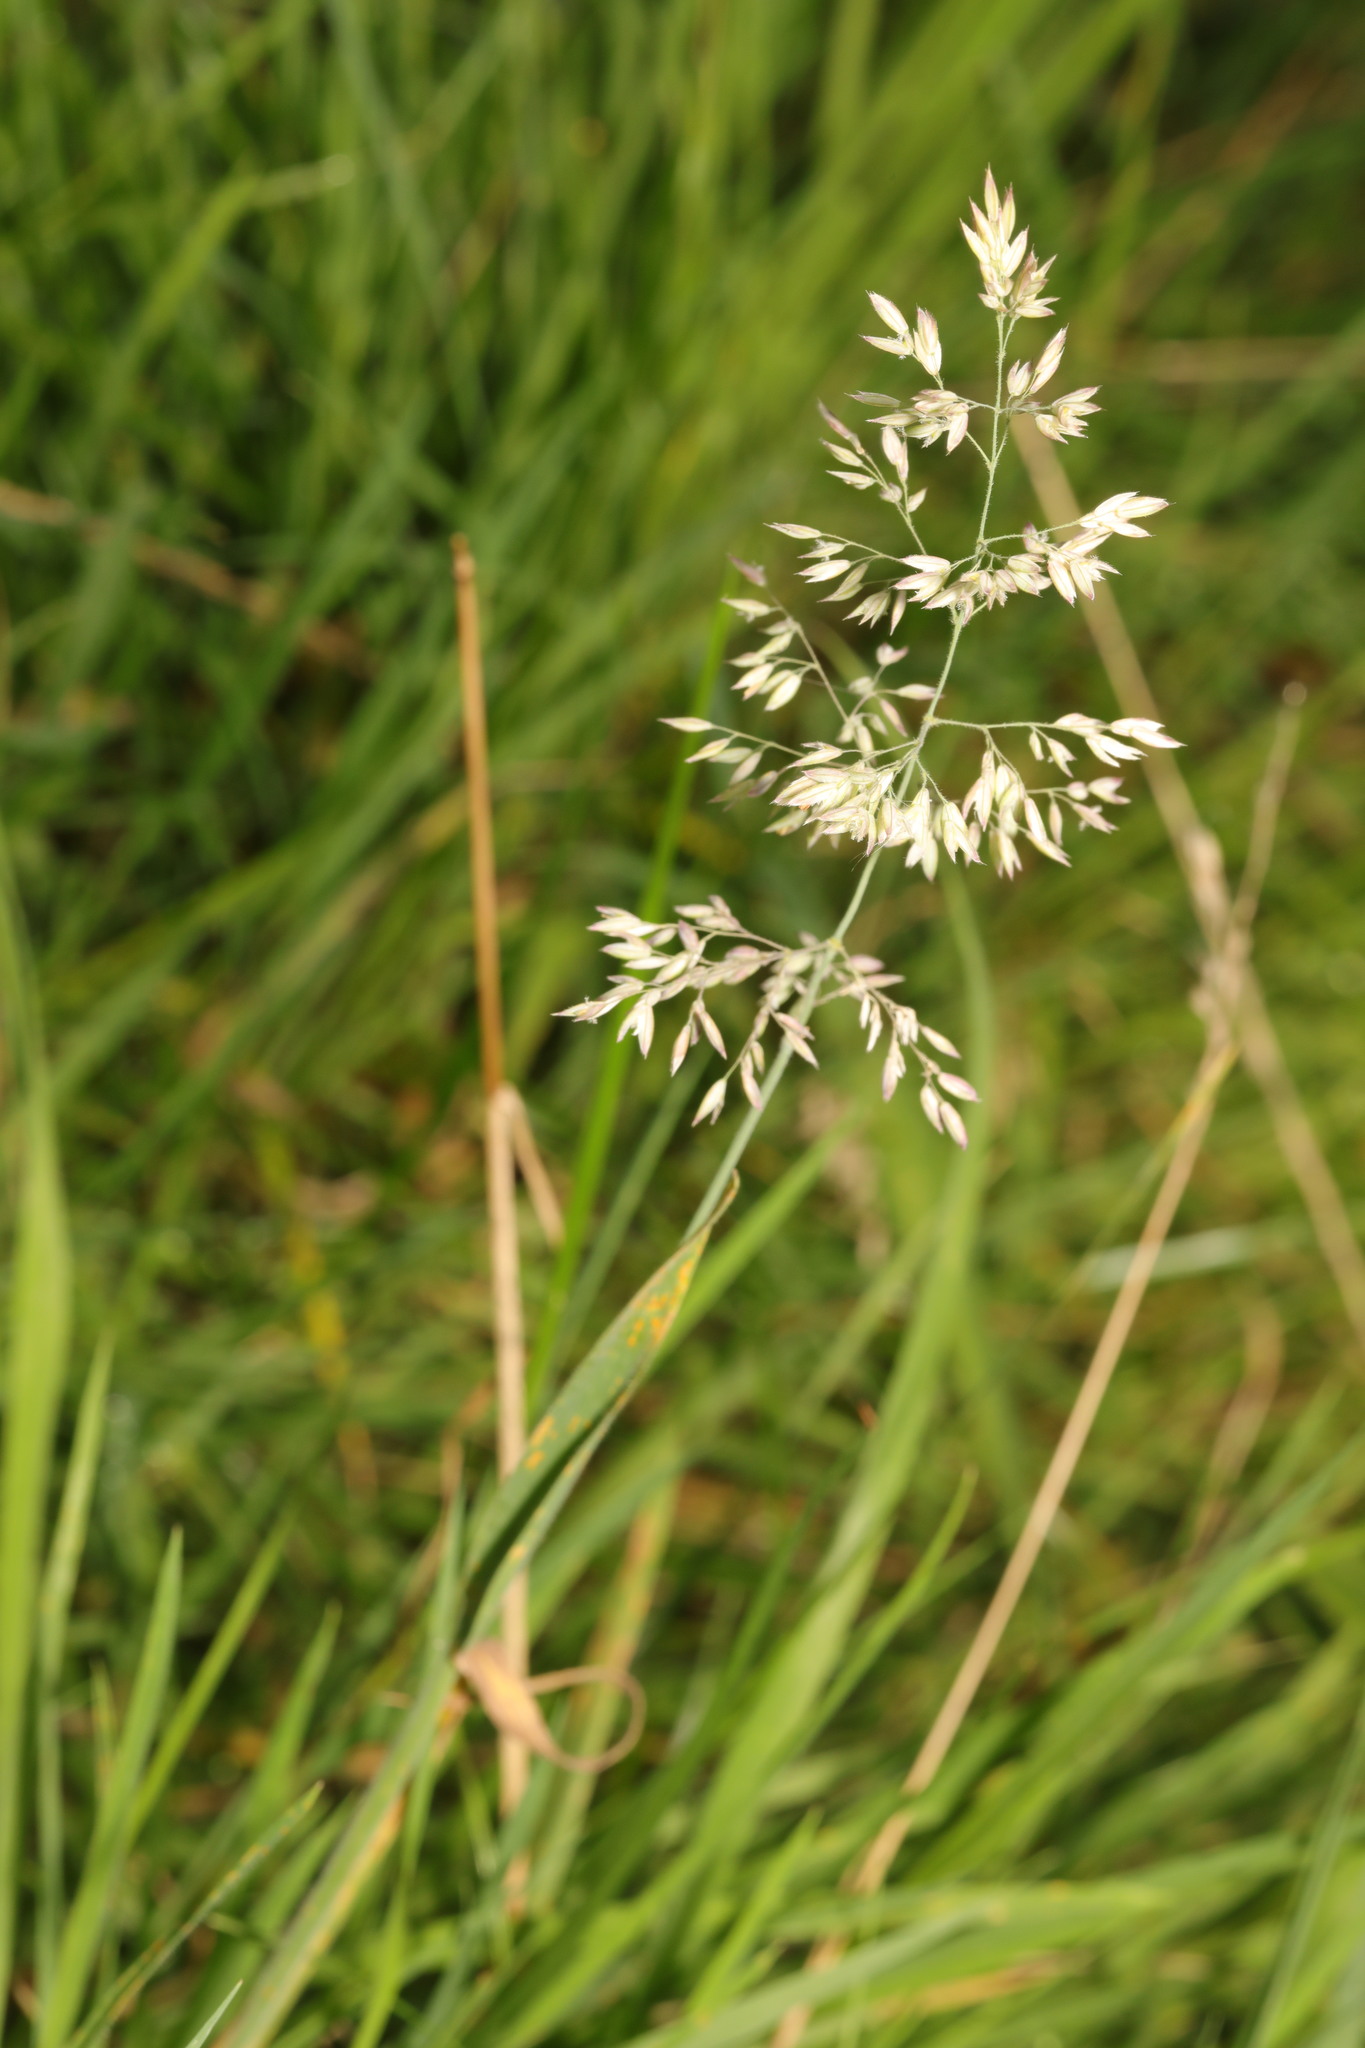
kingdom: Plantae
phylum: Tracheophyta
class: Liliopsida
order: Poales
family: Poaceae
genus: Holcus
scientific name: Holcus lanatus
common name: Yorkshire-fog
